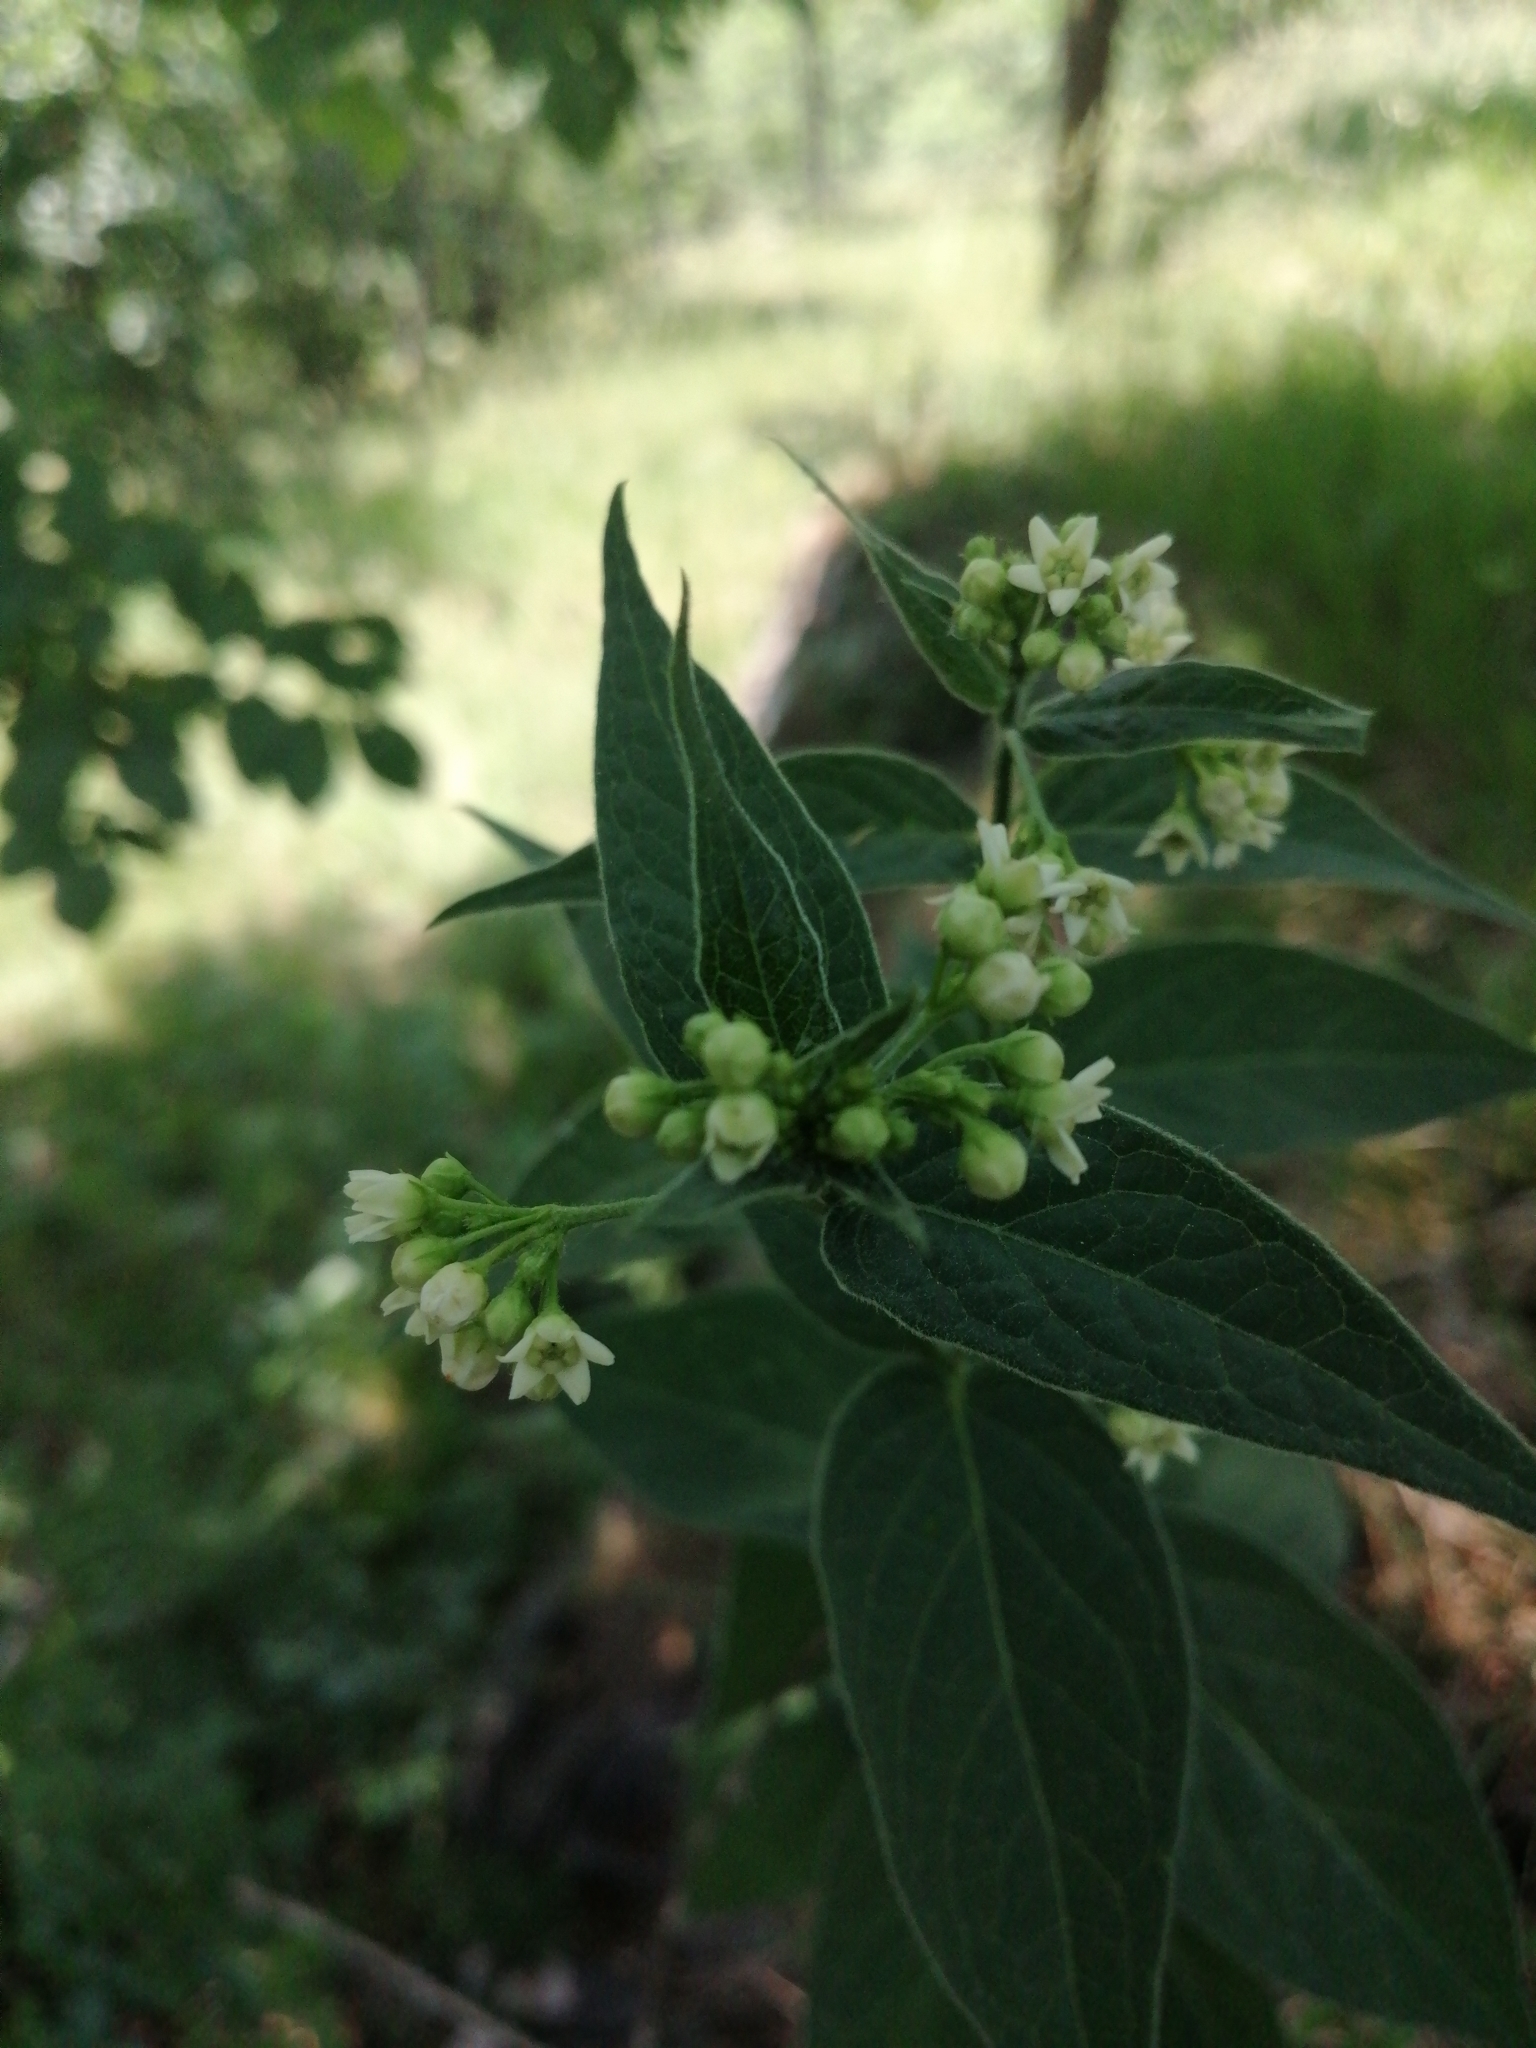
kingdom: Plantae
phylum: Tracheophyta
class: Magnoliopsida
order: Gentianales
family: Apocynaceae
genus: Vincetoxicum
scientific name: Vincetoxicum hirundinaria
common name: White swallowwort
